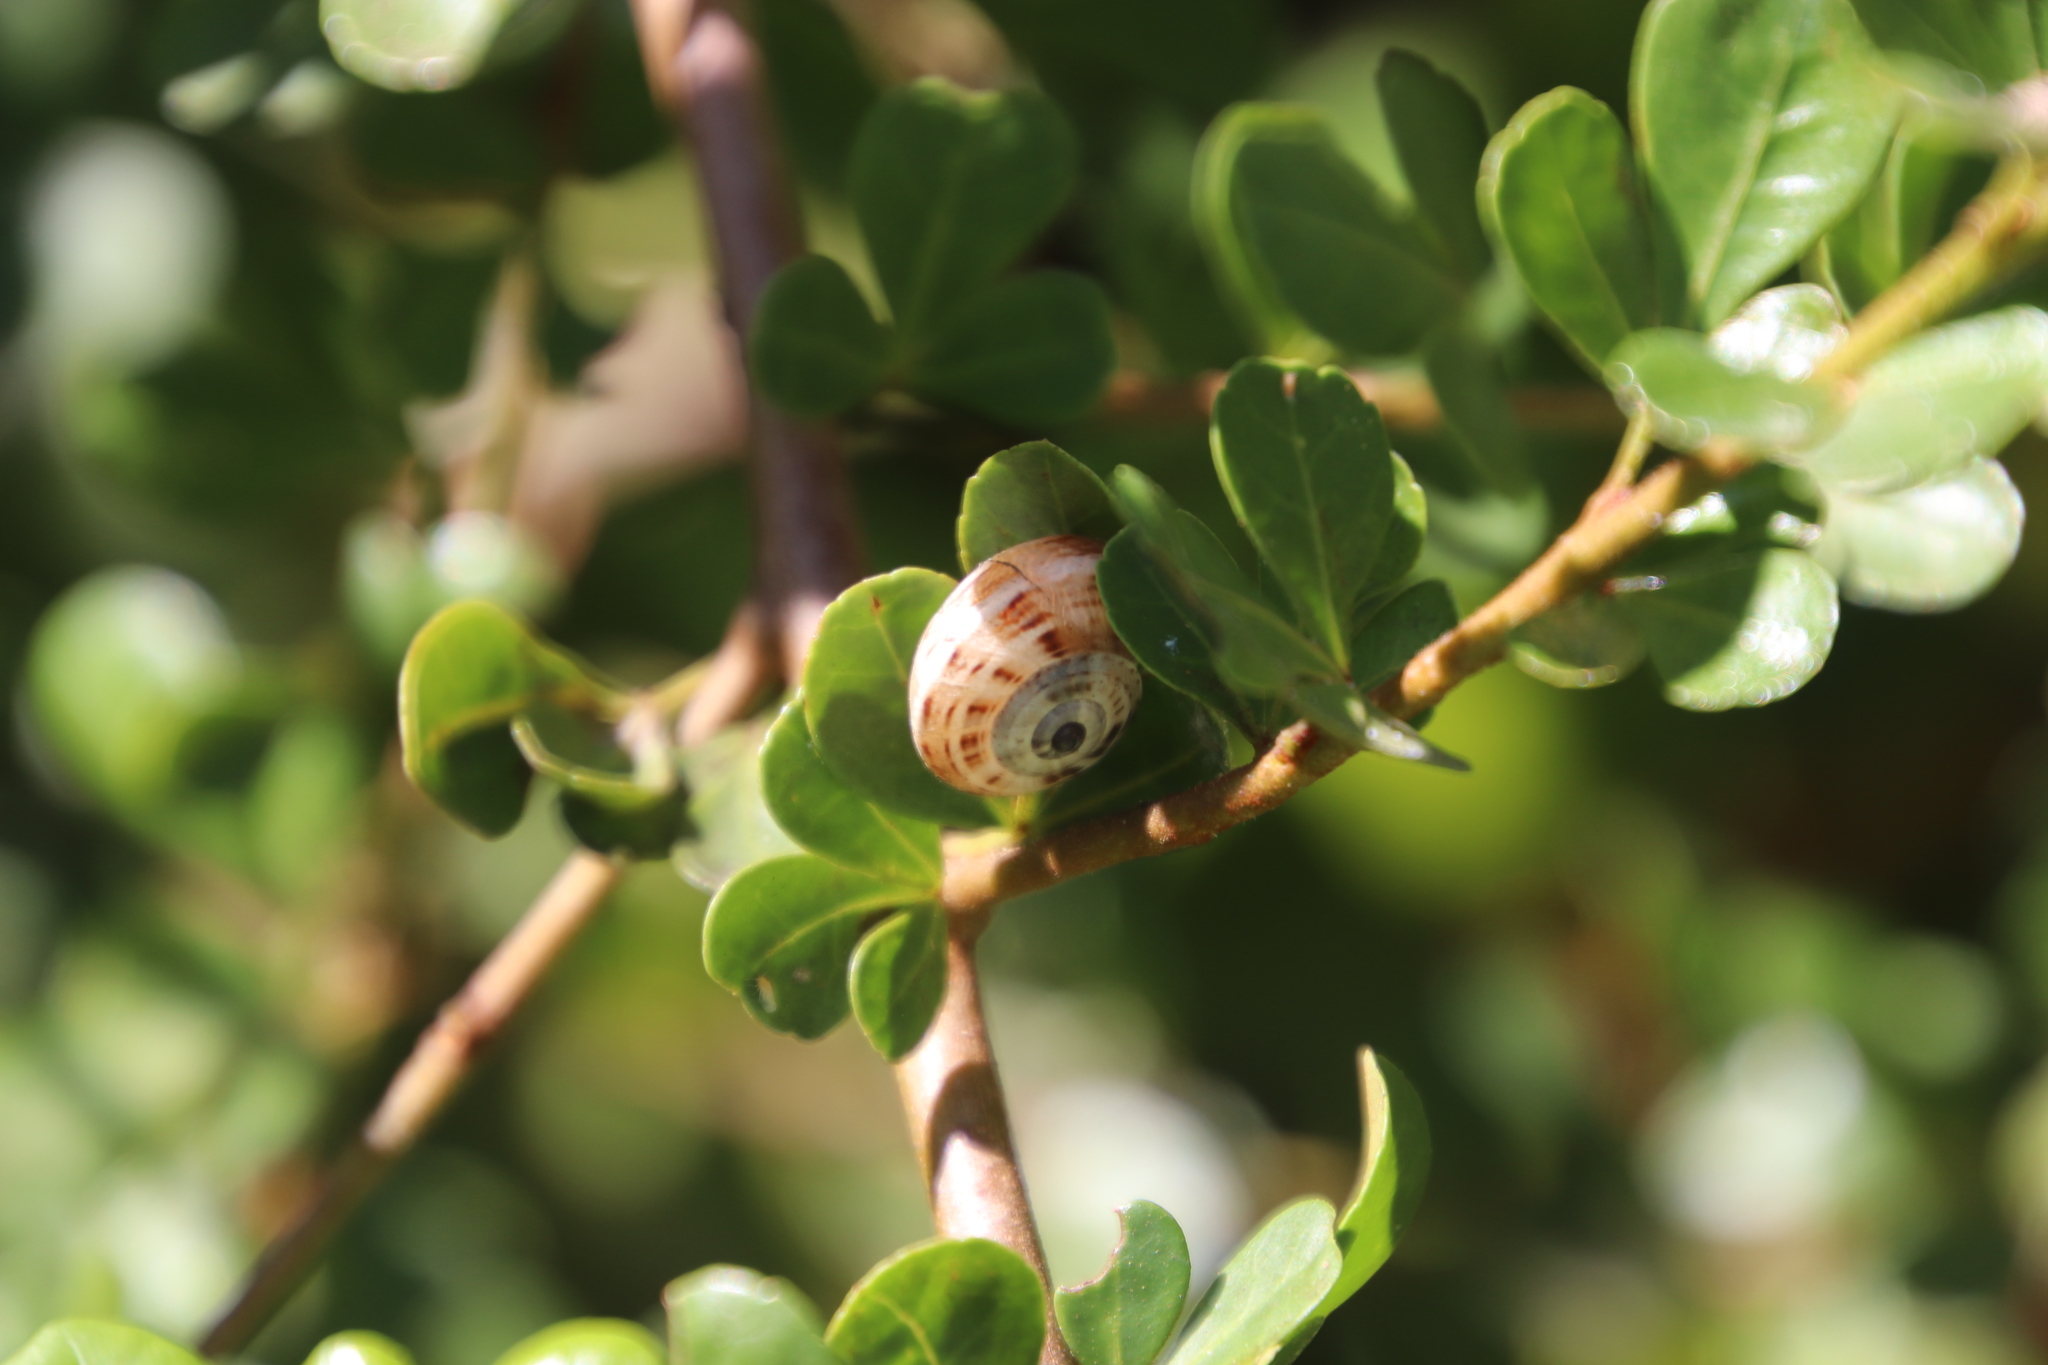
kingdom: Animalia
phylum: Mollusca
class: Gastropoda
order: Stylommatophora
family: Helicidae
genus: Theba
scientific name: Theba pisana
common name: White snail
